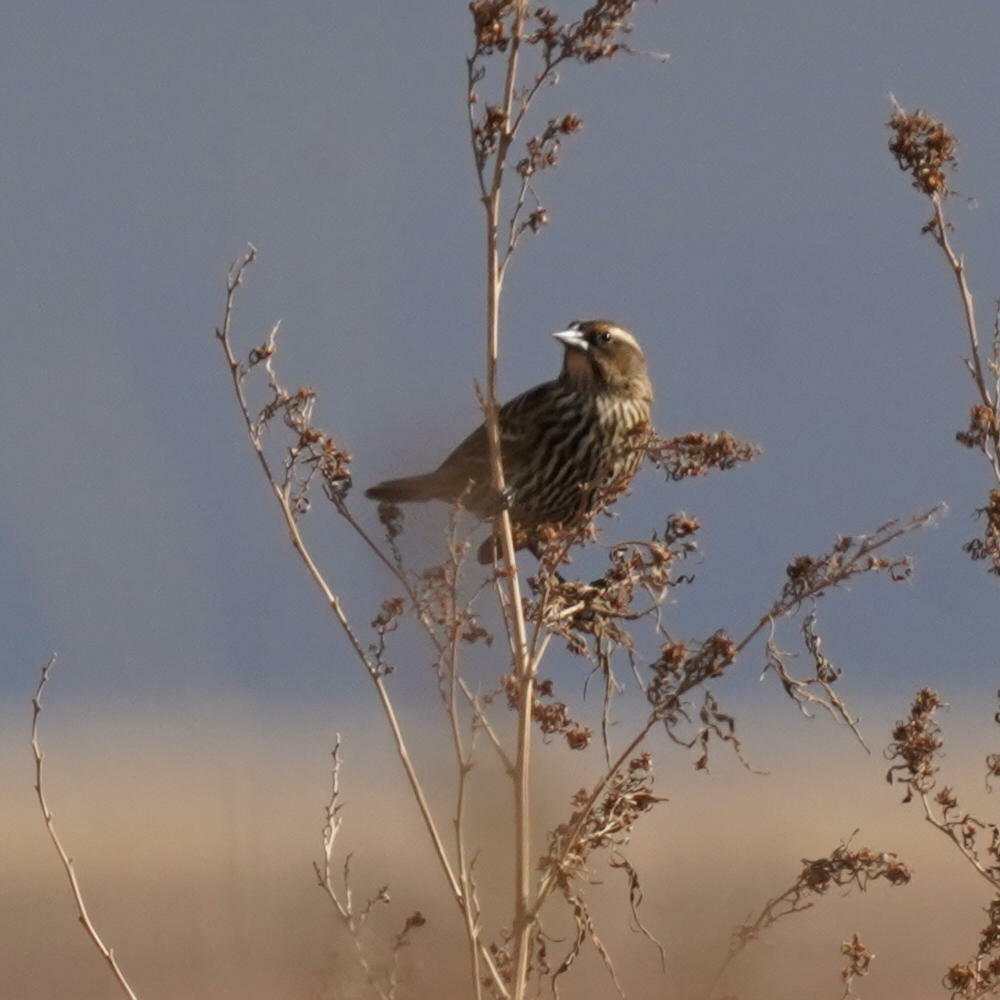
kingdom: Animalia
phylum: Chordata
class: Aves
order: Passeriformes
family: Icteridae
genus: Agelaius
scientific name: Agelaius phoeniceus
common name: Red-winged blackbird
